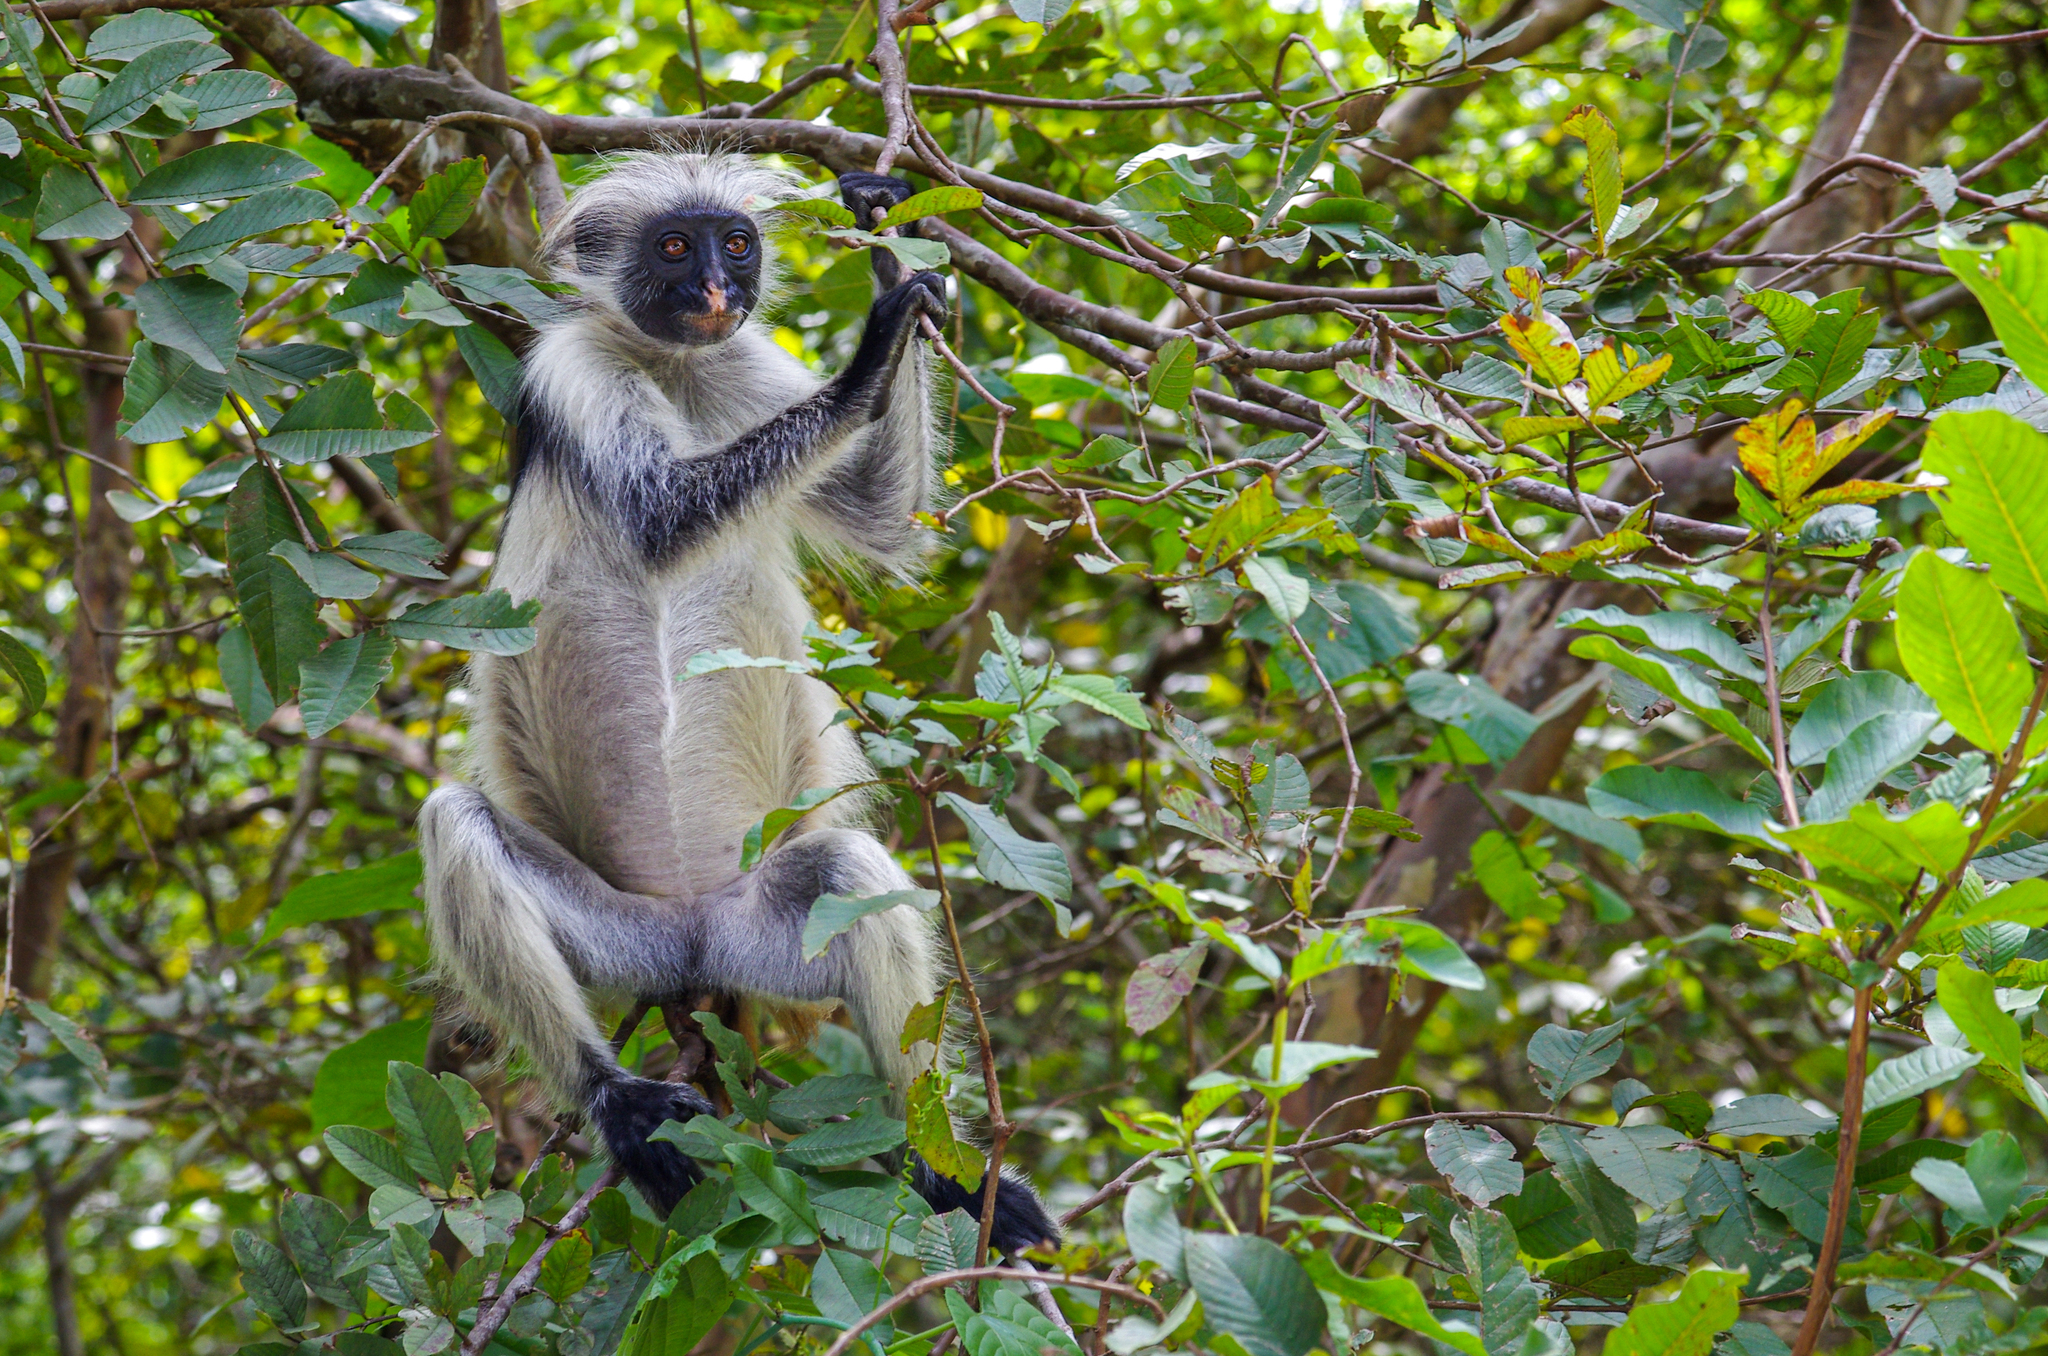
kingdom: Animalia
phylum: Chordata
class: Mammalia
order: Primates
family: Cercopithecidae
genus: Piliocolobus
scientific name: Piliocolobus kirkii
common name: Zanzibar red colobus
